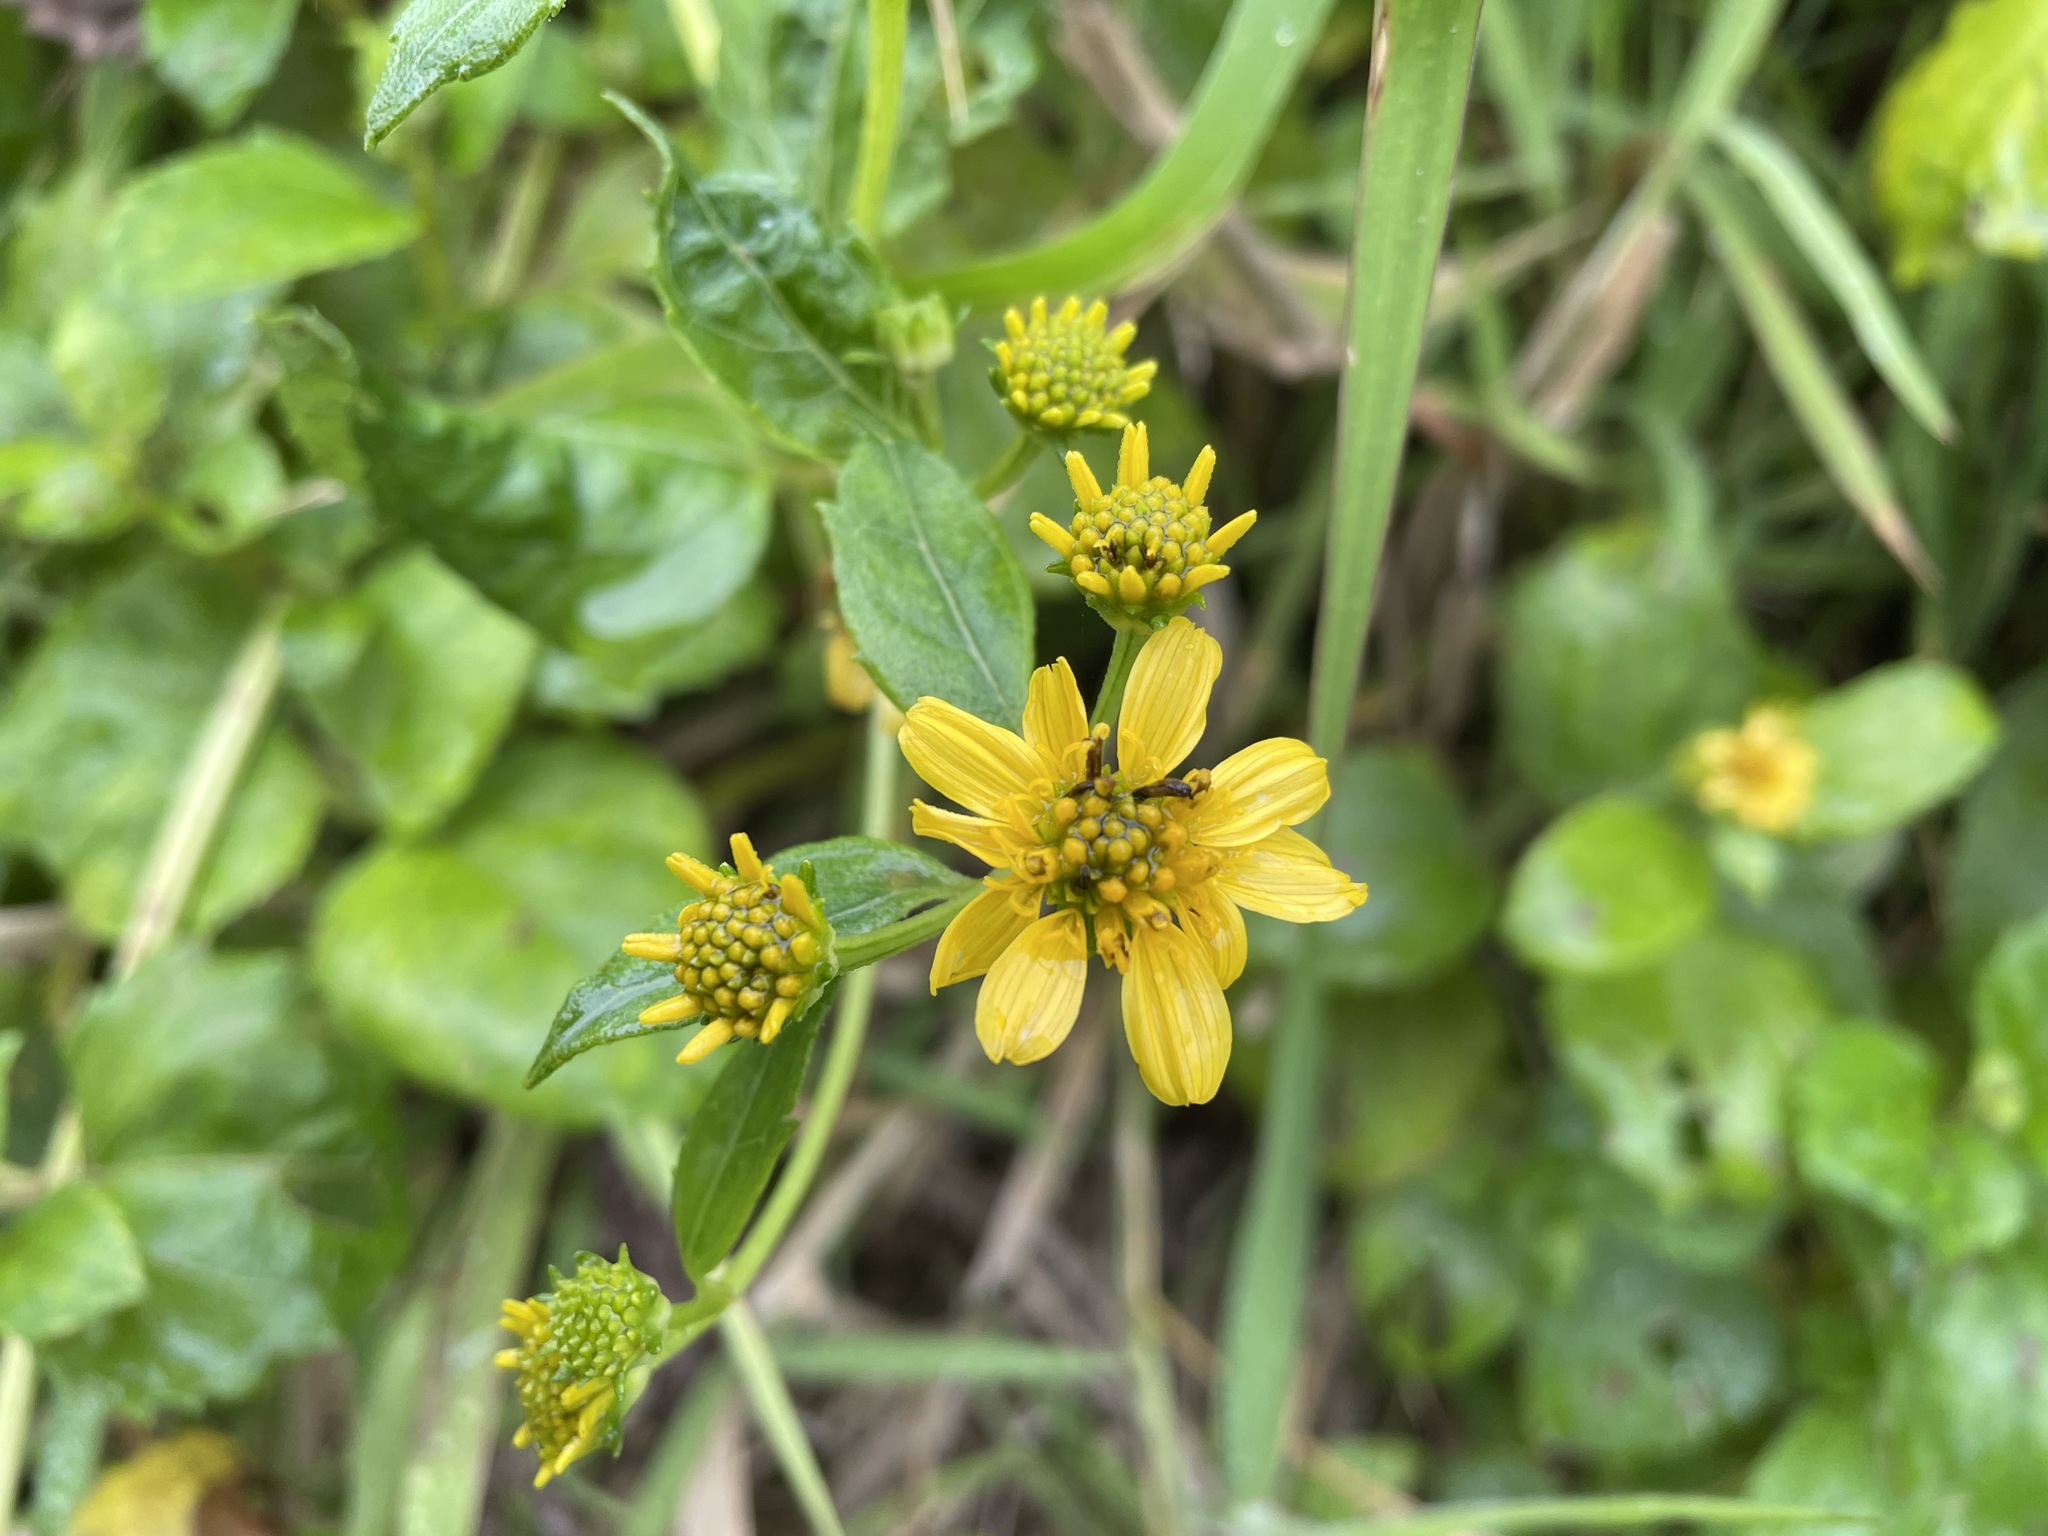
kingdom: Plantae
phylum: Tracheophyta
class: Magnoliopsida
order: Asterales
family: Asteraceae
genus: Wollastonia
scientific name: Wollastonia biflora
